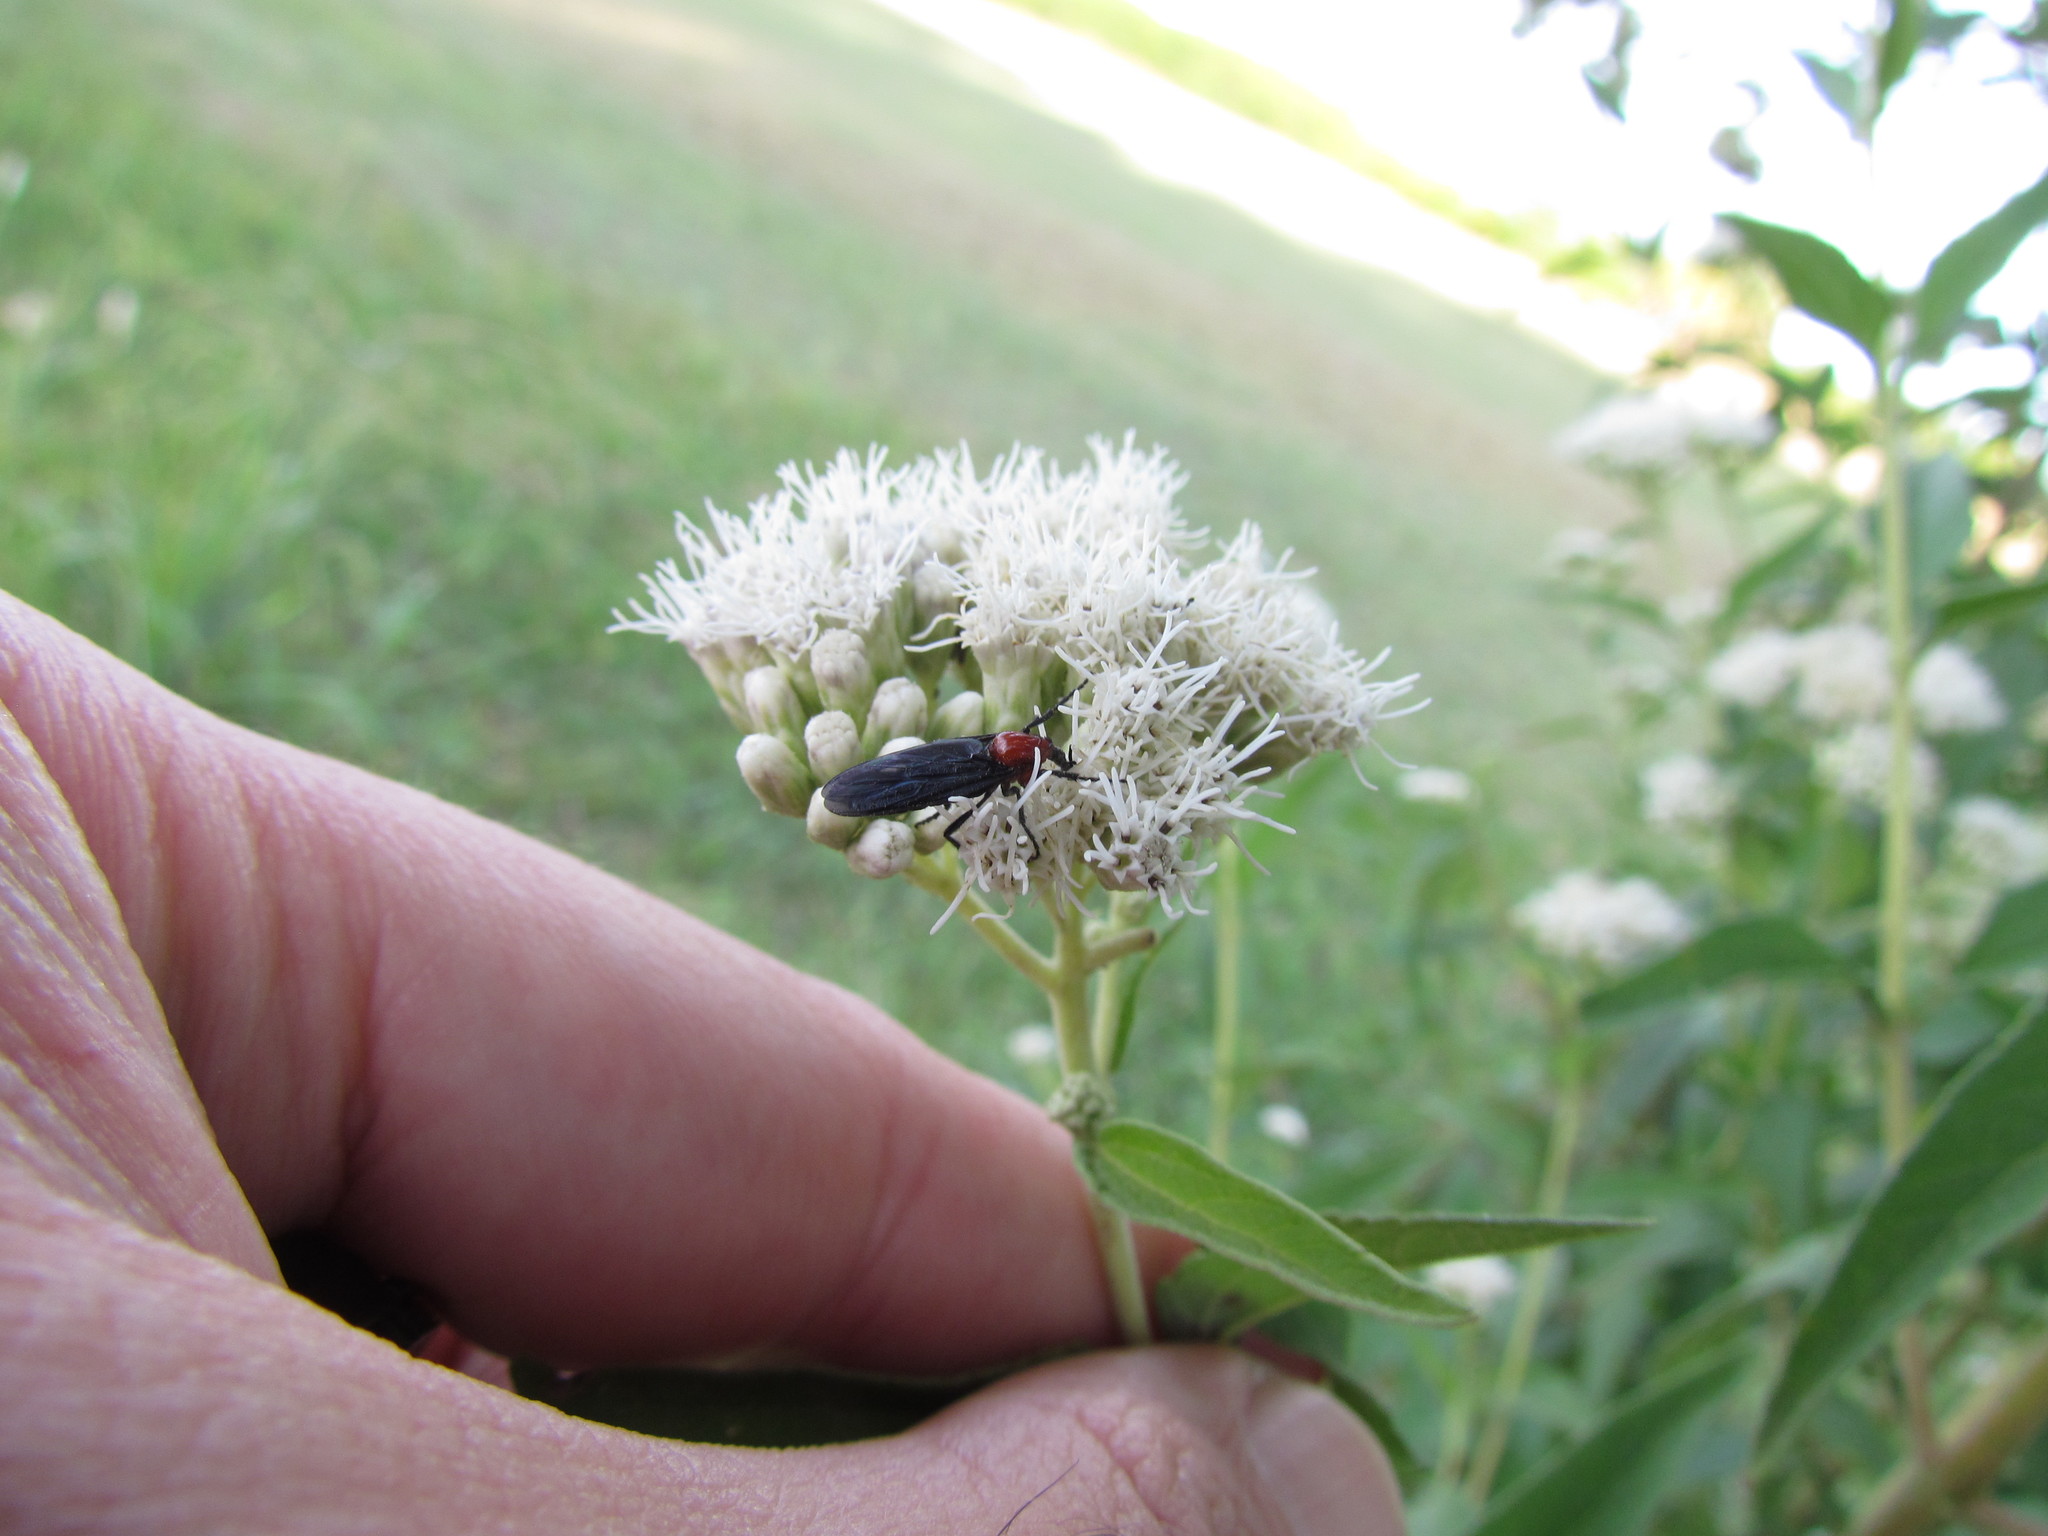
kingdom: Animalia
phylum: Arthropoda
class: Insecta
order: Diptera
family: Bibionidae
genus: Dilophus
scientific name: Dilophus pectoralis
